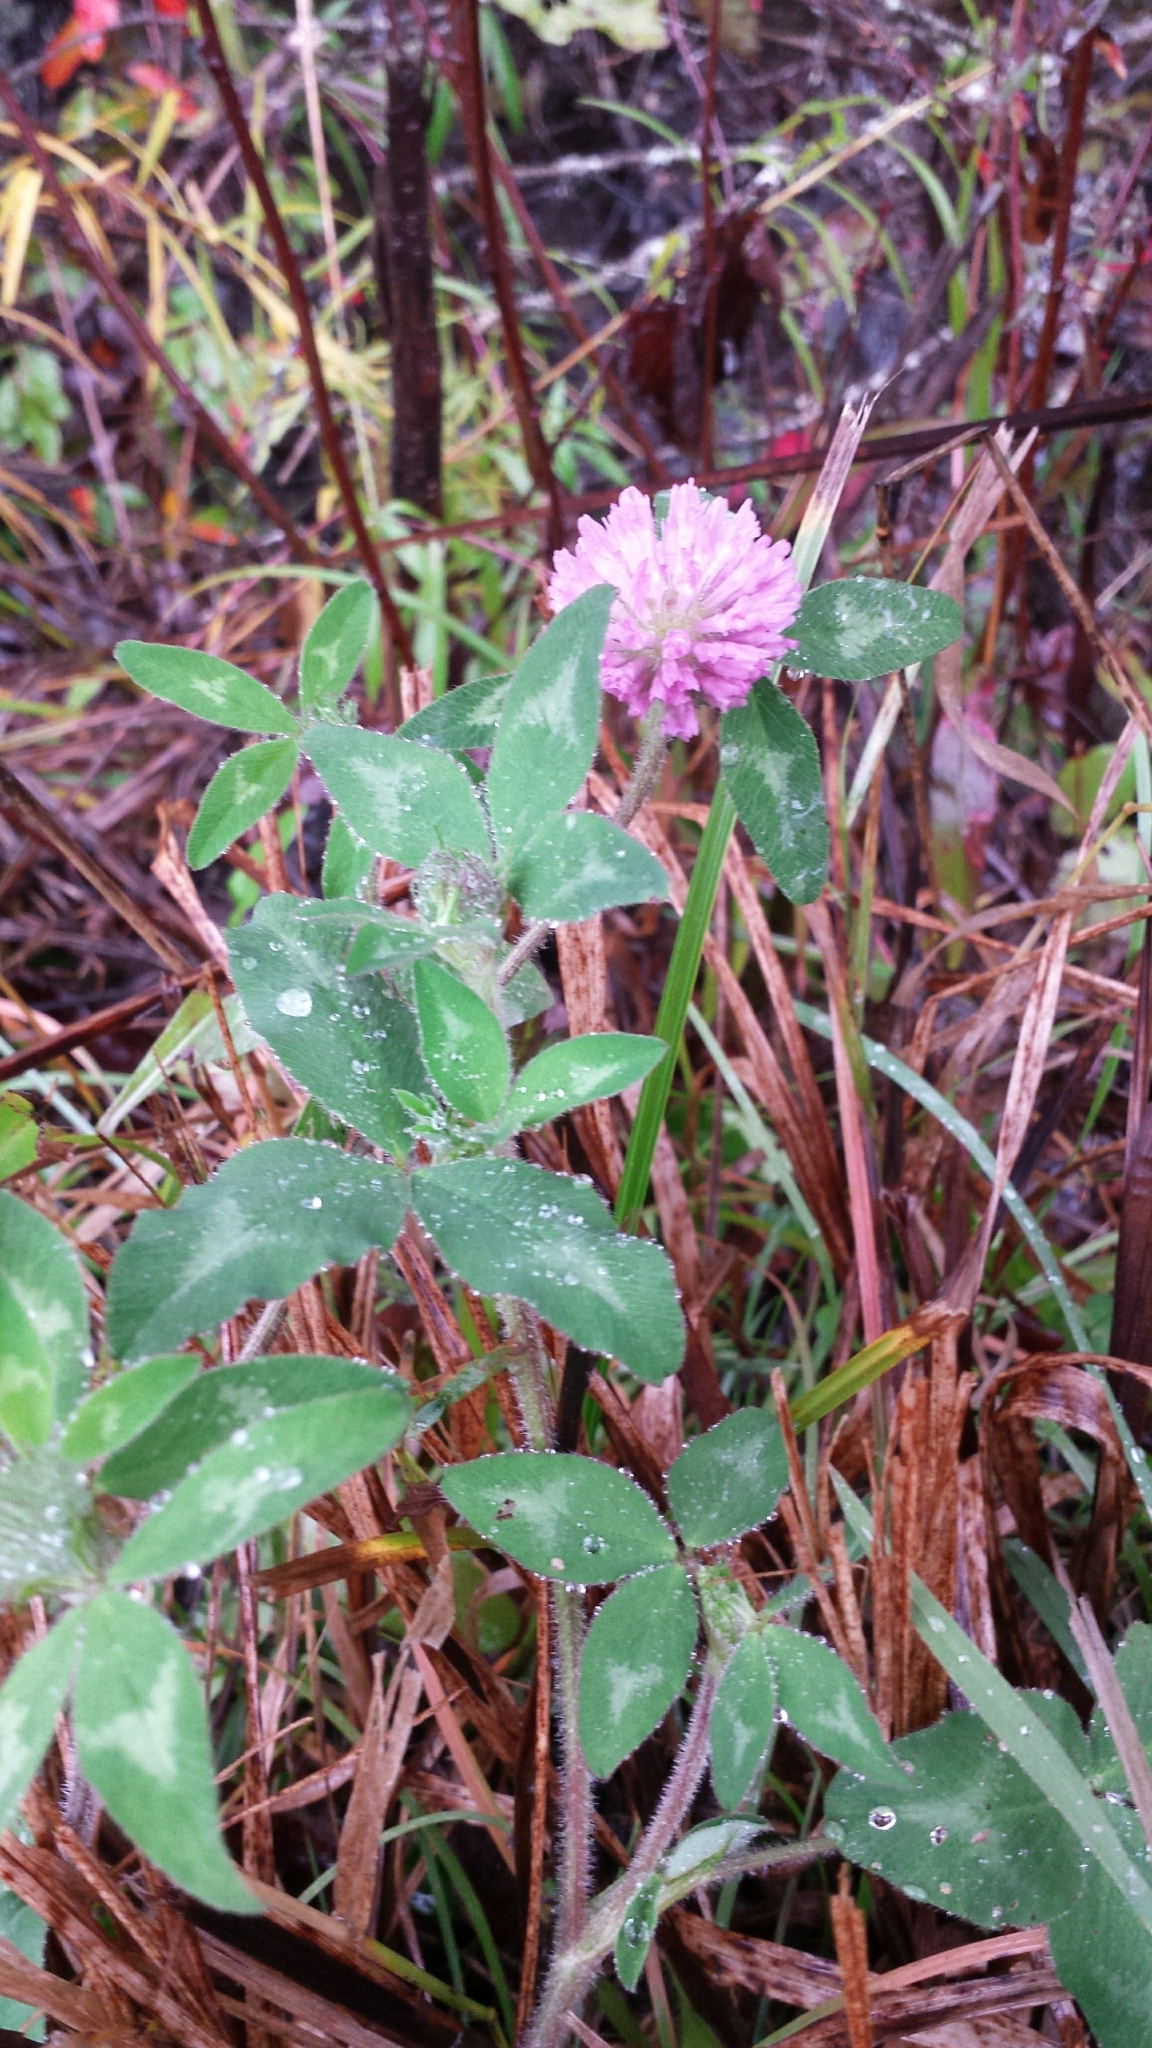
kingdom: Plantae
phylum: Tracheophyta
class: Magnoliopsida
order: Fabales
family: Fabaceae
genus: Trifolium
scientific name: Trifolium pratense
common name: Red clover
